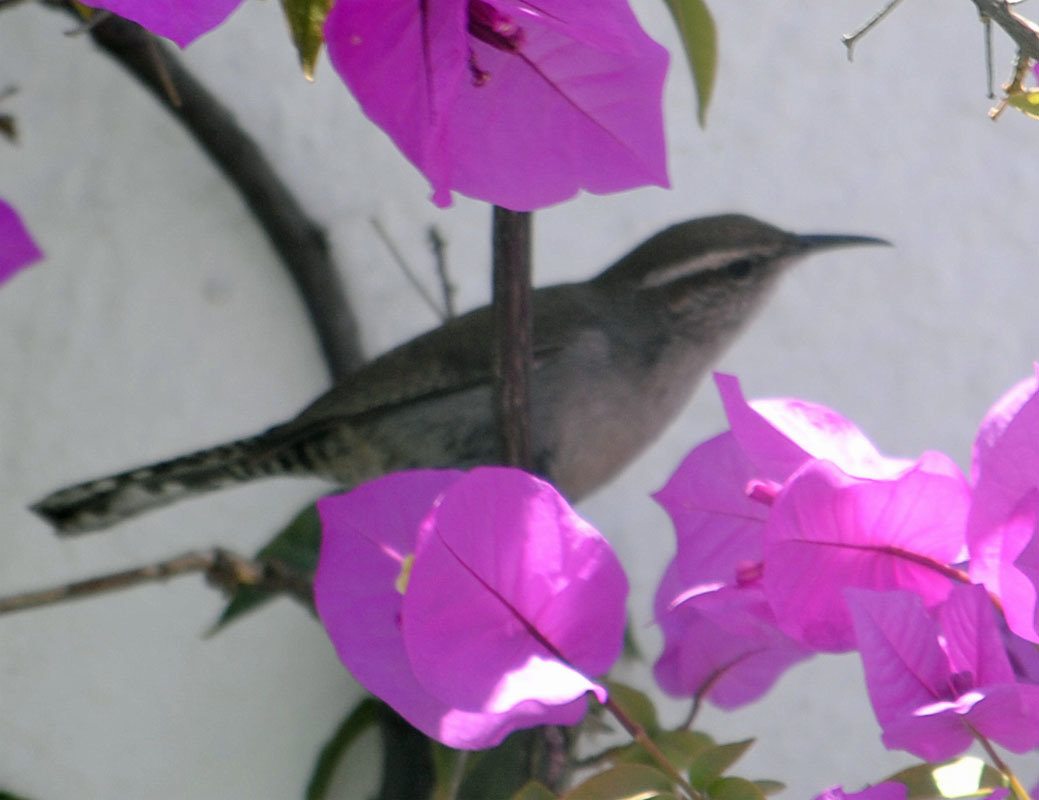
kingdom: Animalia
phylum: Chordata
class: Aves
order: Passeriformes
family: Troglodytidae
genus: Thryomanes
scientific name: Thryomanes bewickii
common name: Bewick's wren
